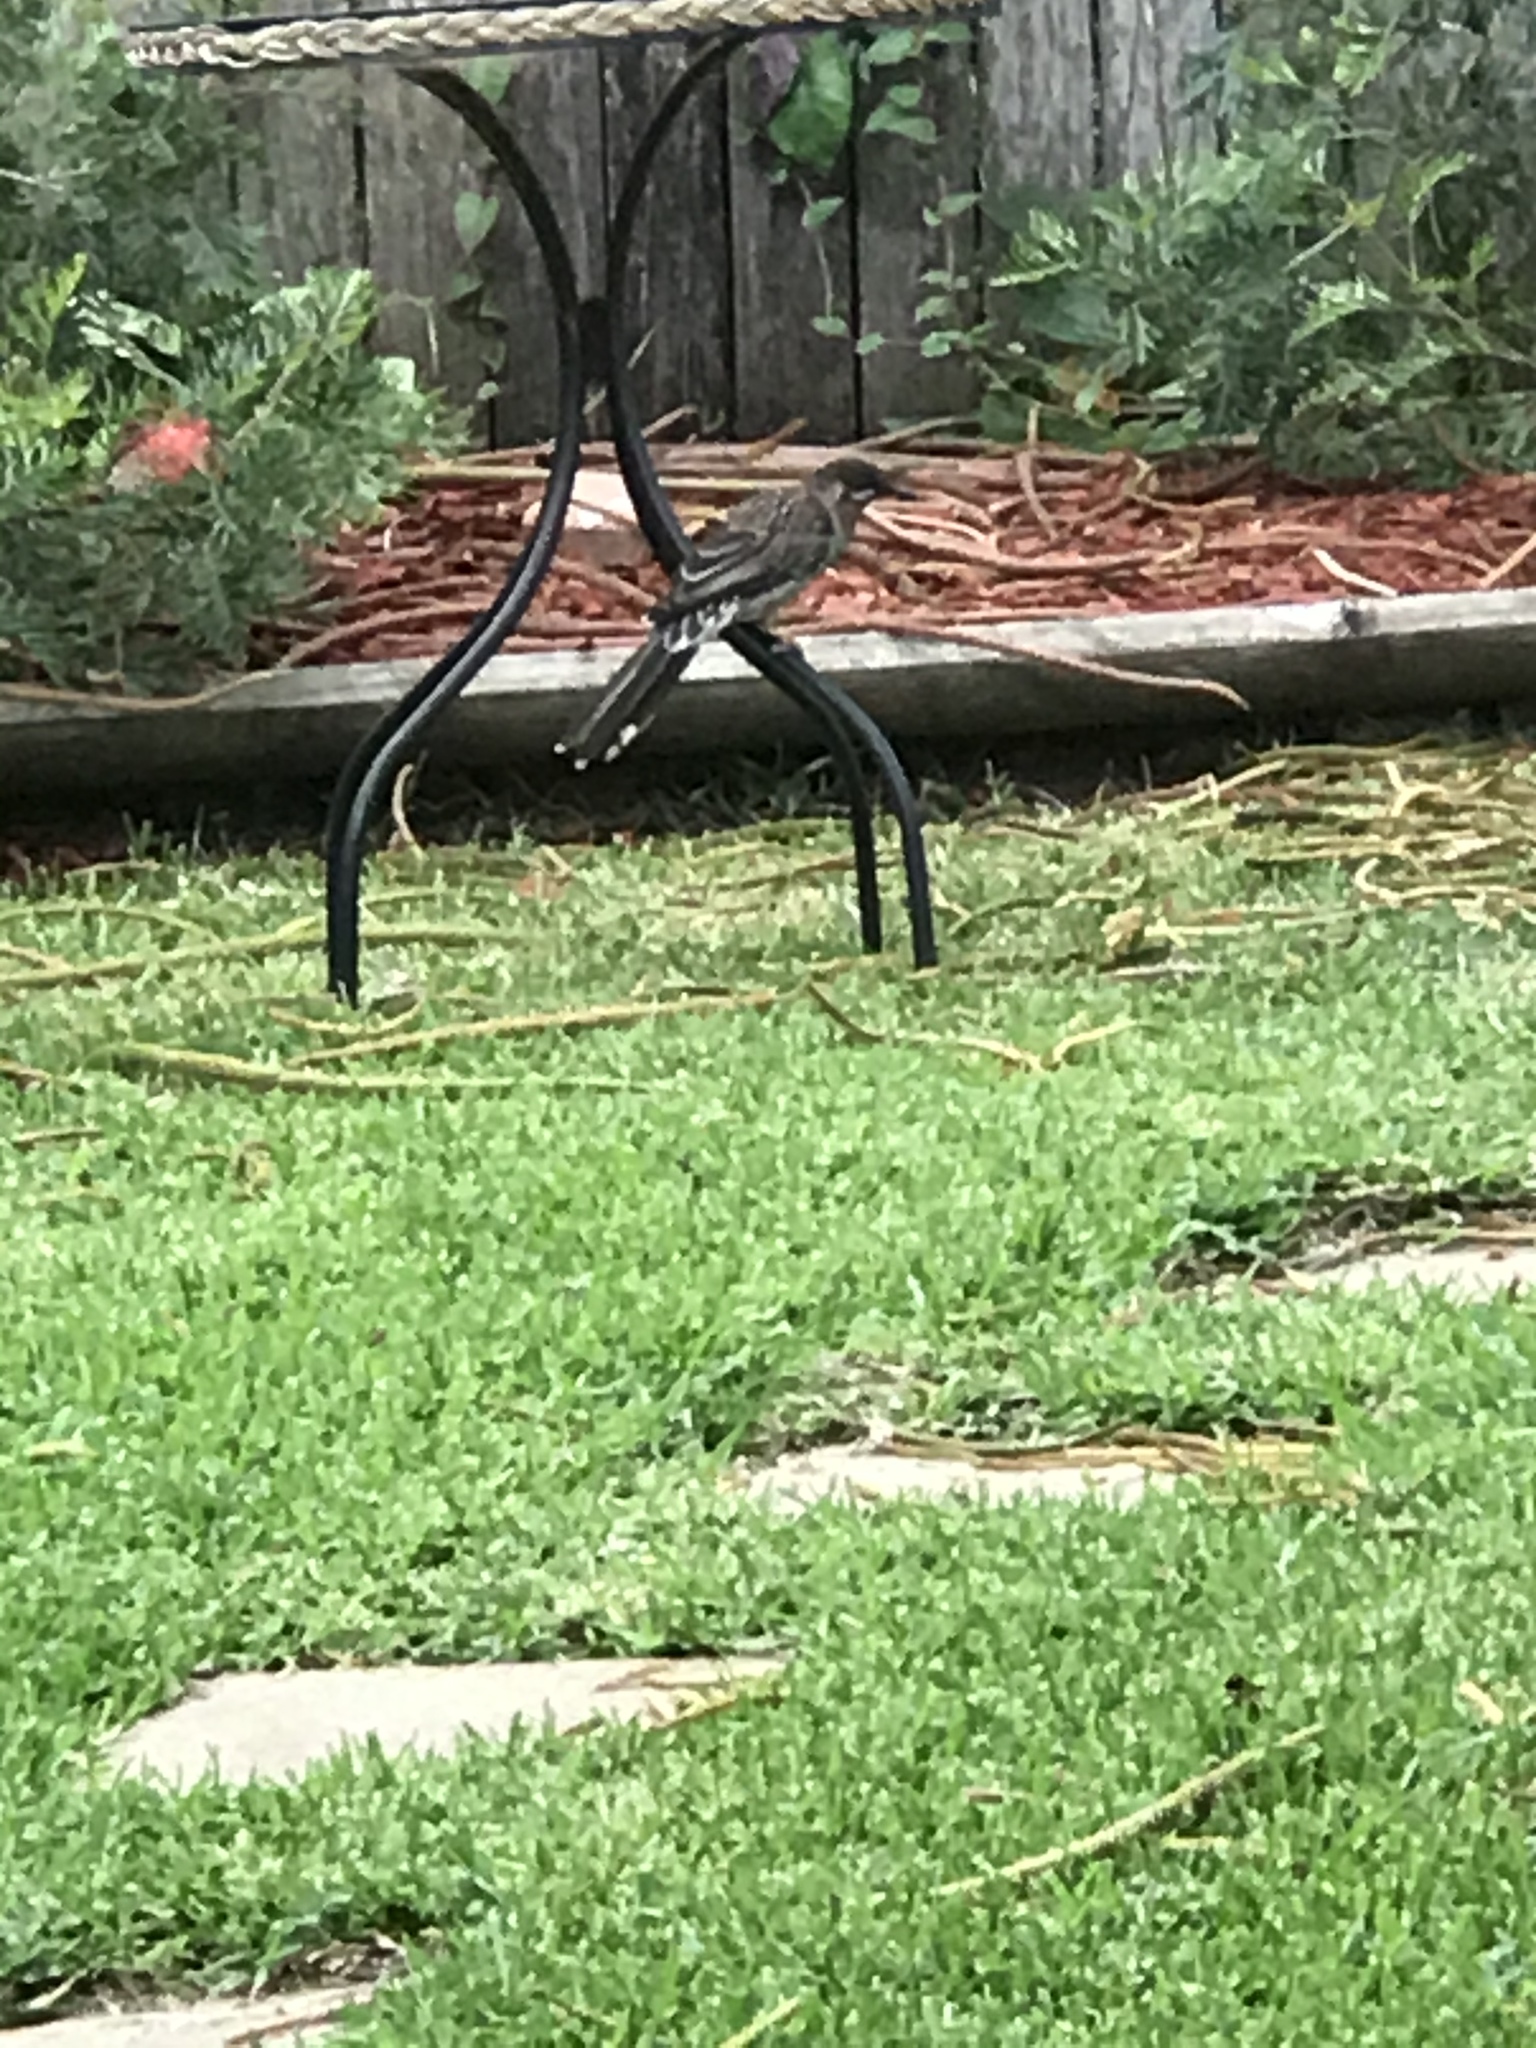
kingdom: Animalia
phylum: Chordata
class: Aves
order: Passeriformes
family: Meliphagidae
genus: Anthochaera
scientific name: Anthochaera carunculata
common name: Red wattlebird
